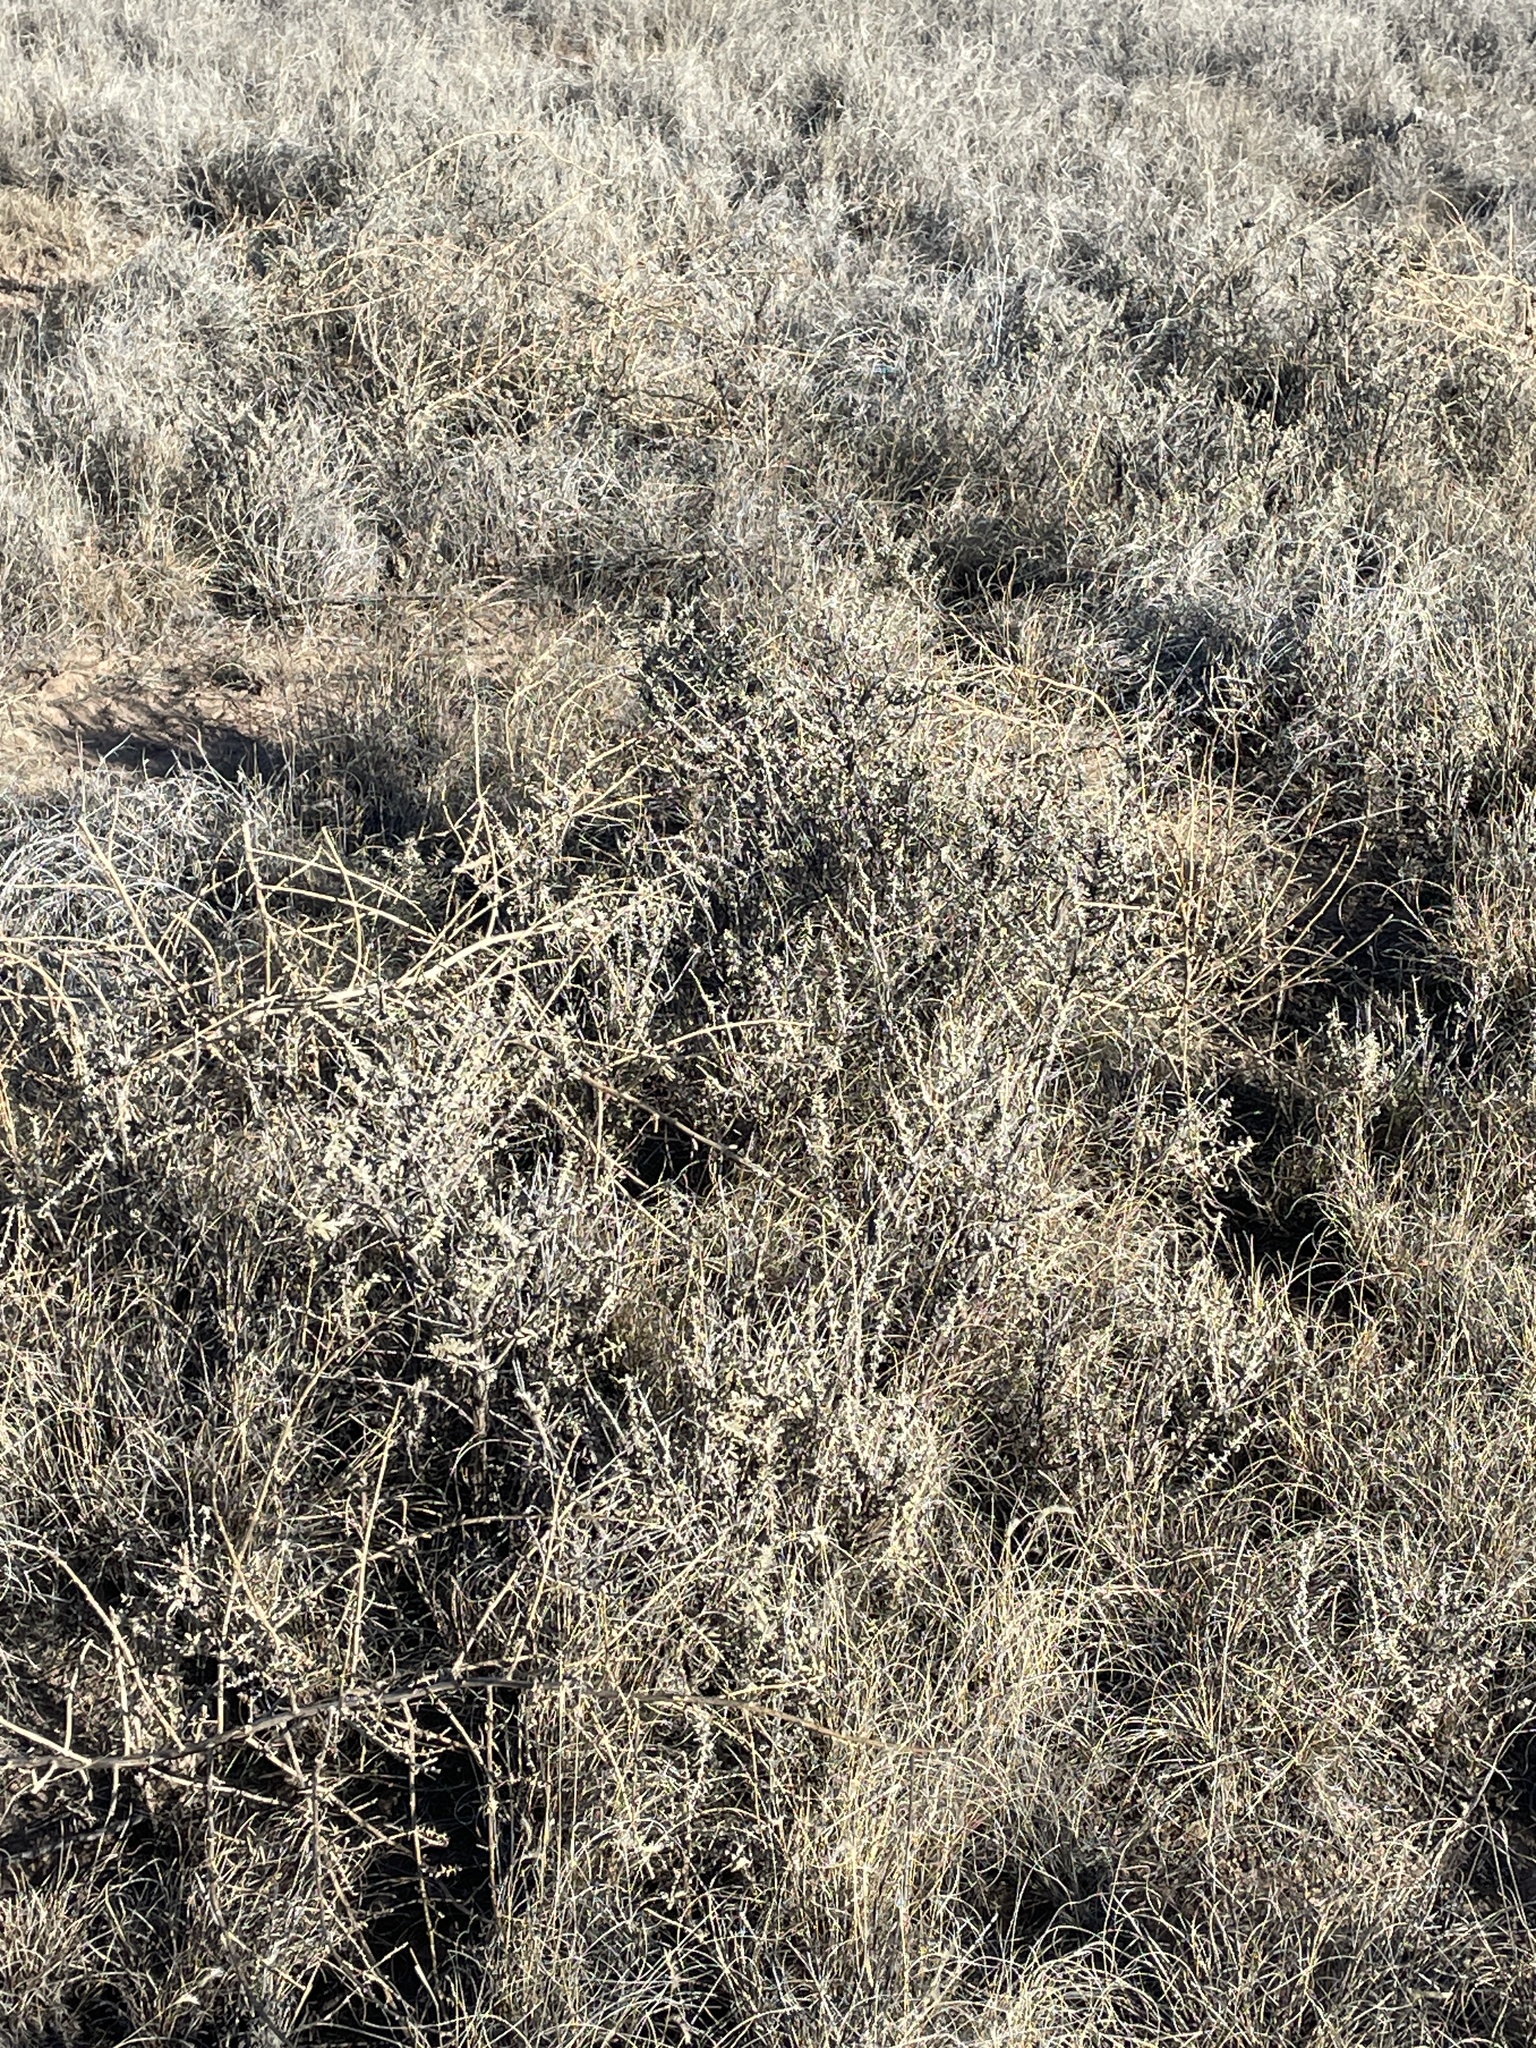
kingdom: Plantae
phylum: Tracheophyta
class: Magnoliopsida
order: Lamiales
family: Scrophulariaceae
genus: Buddleja
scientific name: Buddleja scordioides
